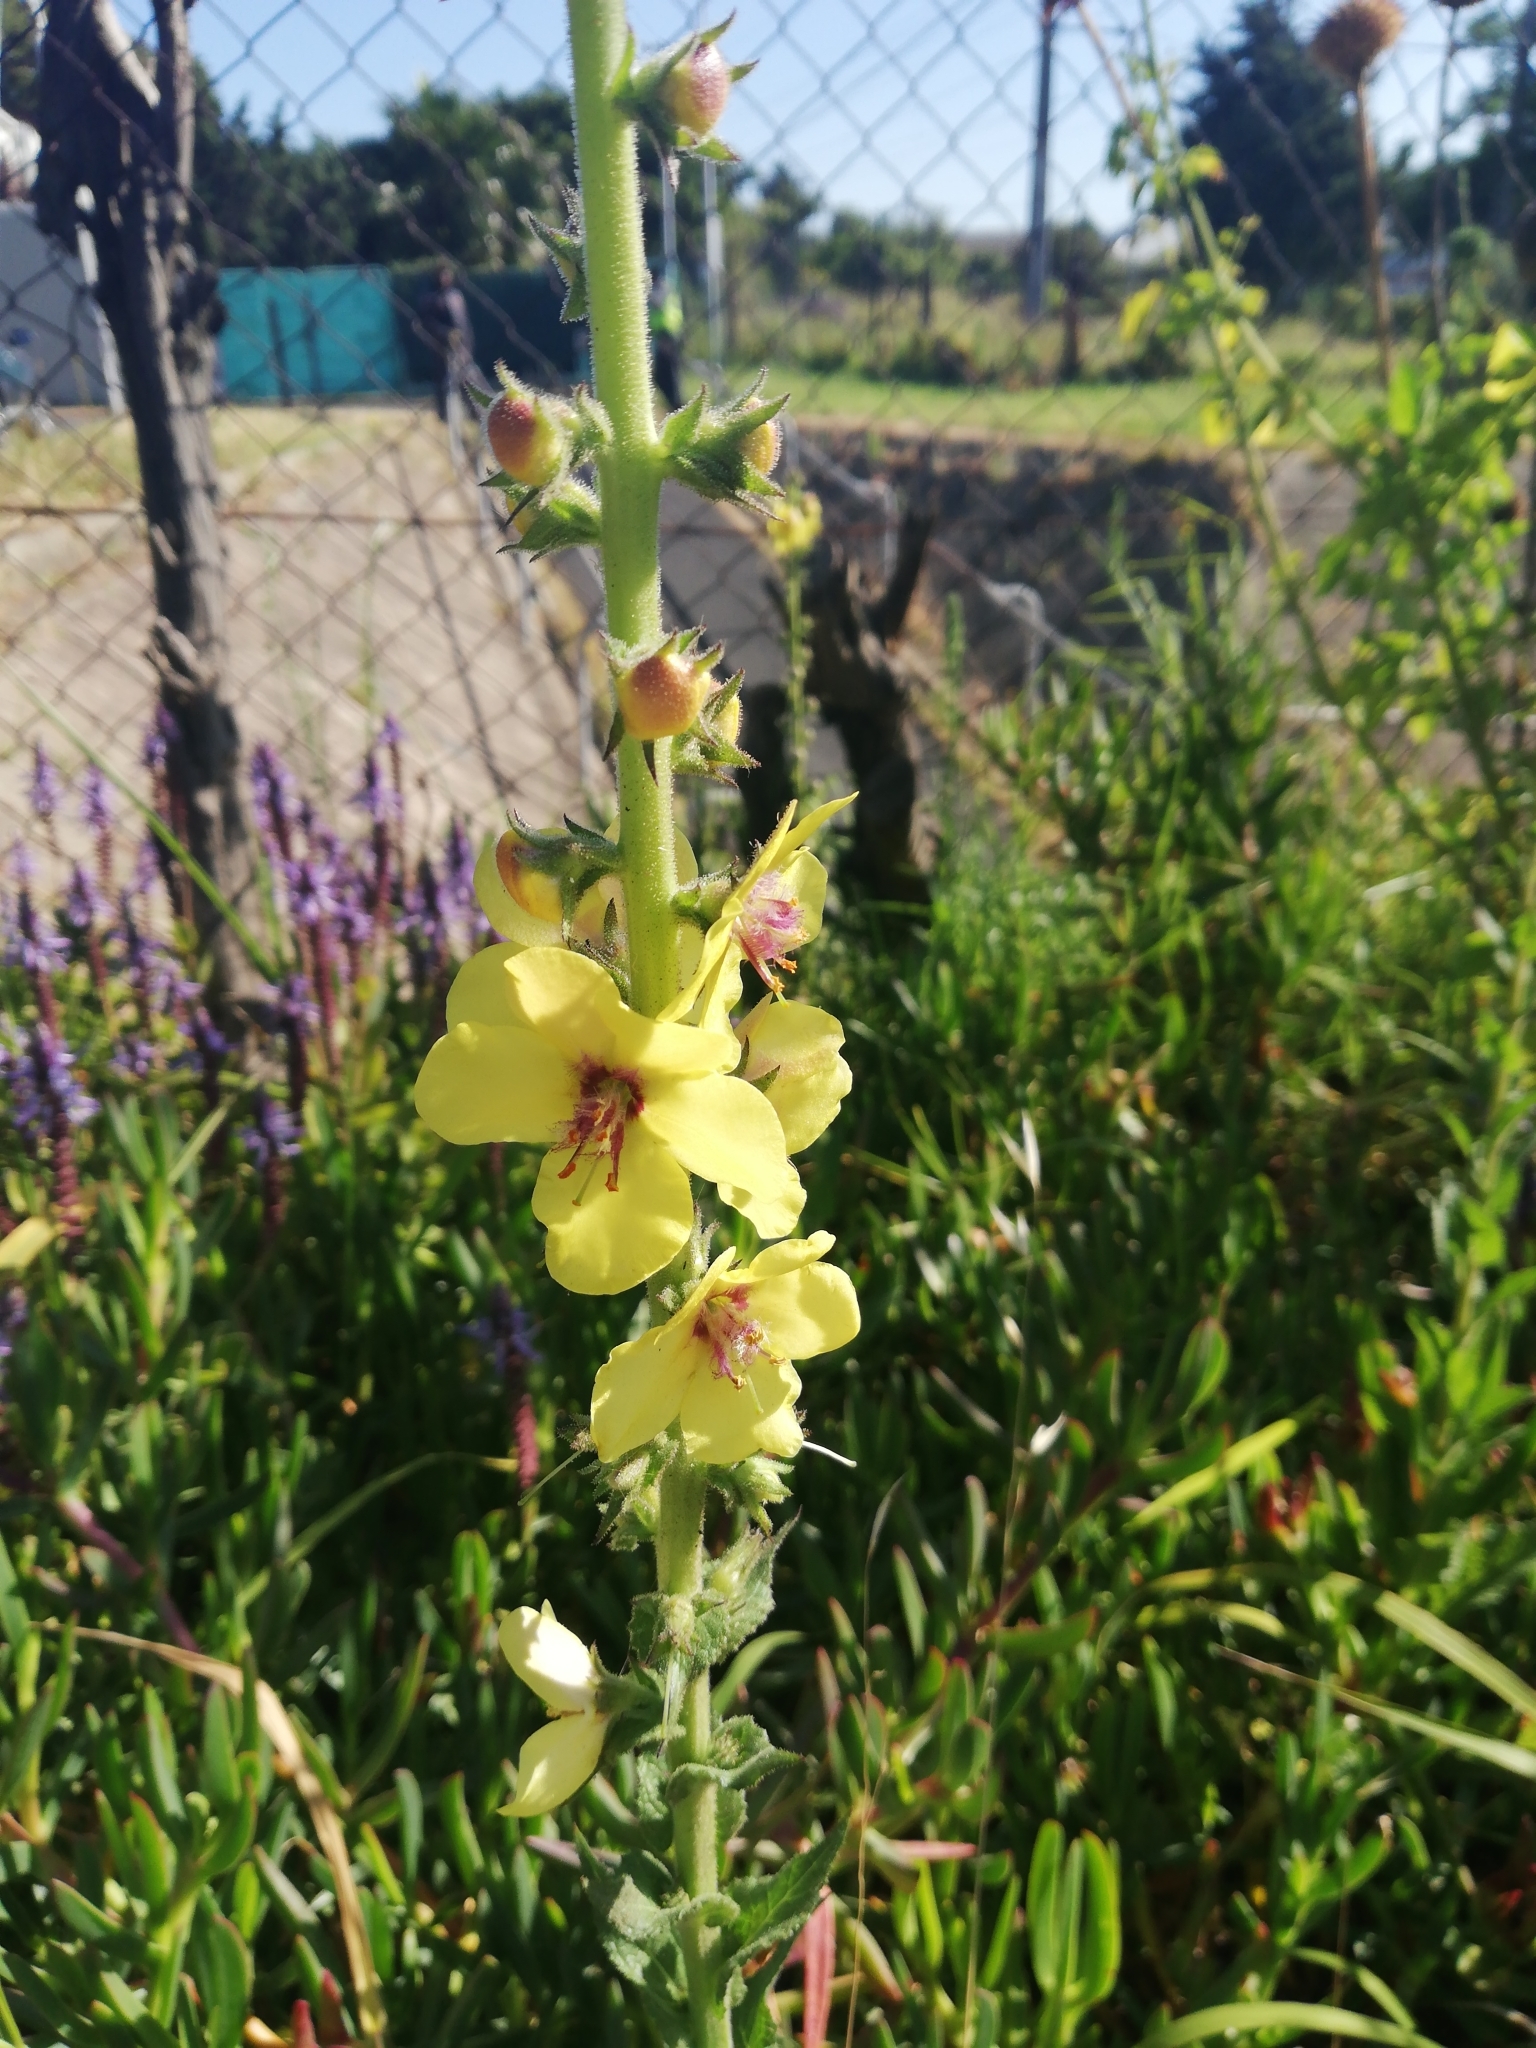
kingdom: Plantae
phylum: Tracheophyta
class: Magnoliopsida
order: Lamiales
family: Scrophulariaceae
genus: Verbascum
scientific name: Verbascum virgatum
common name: Twiggy mullein
